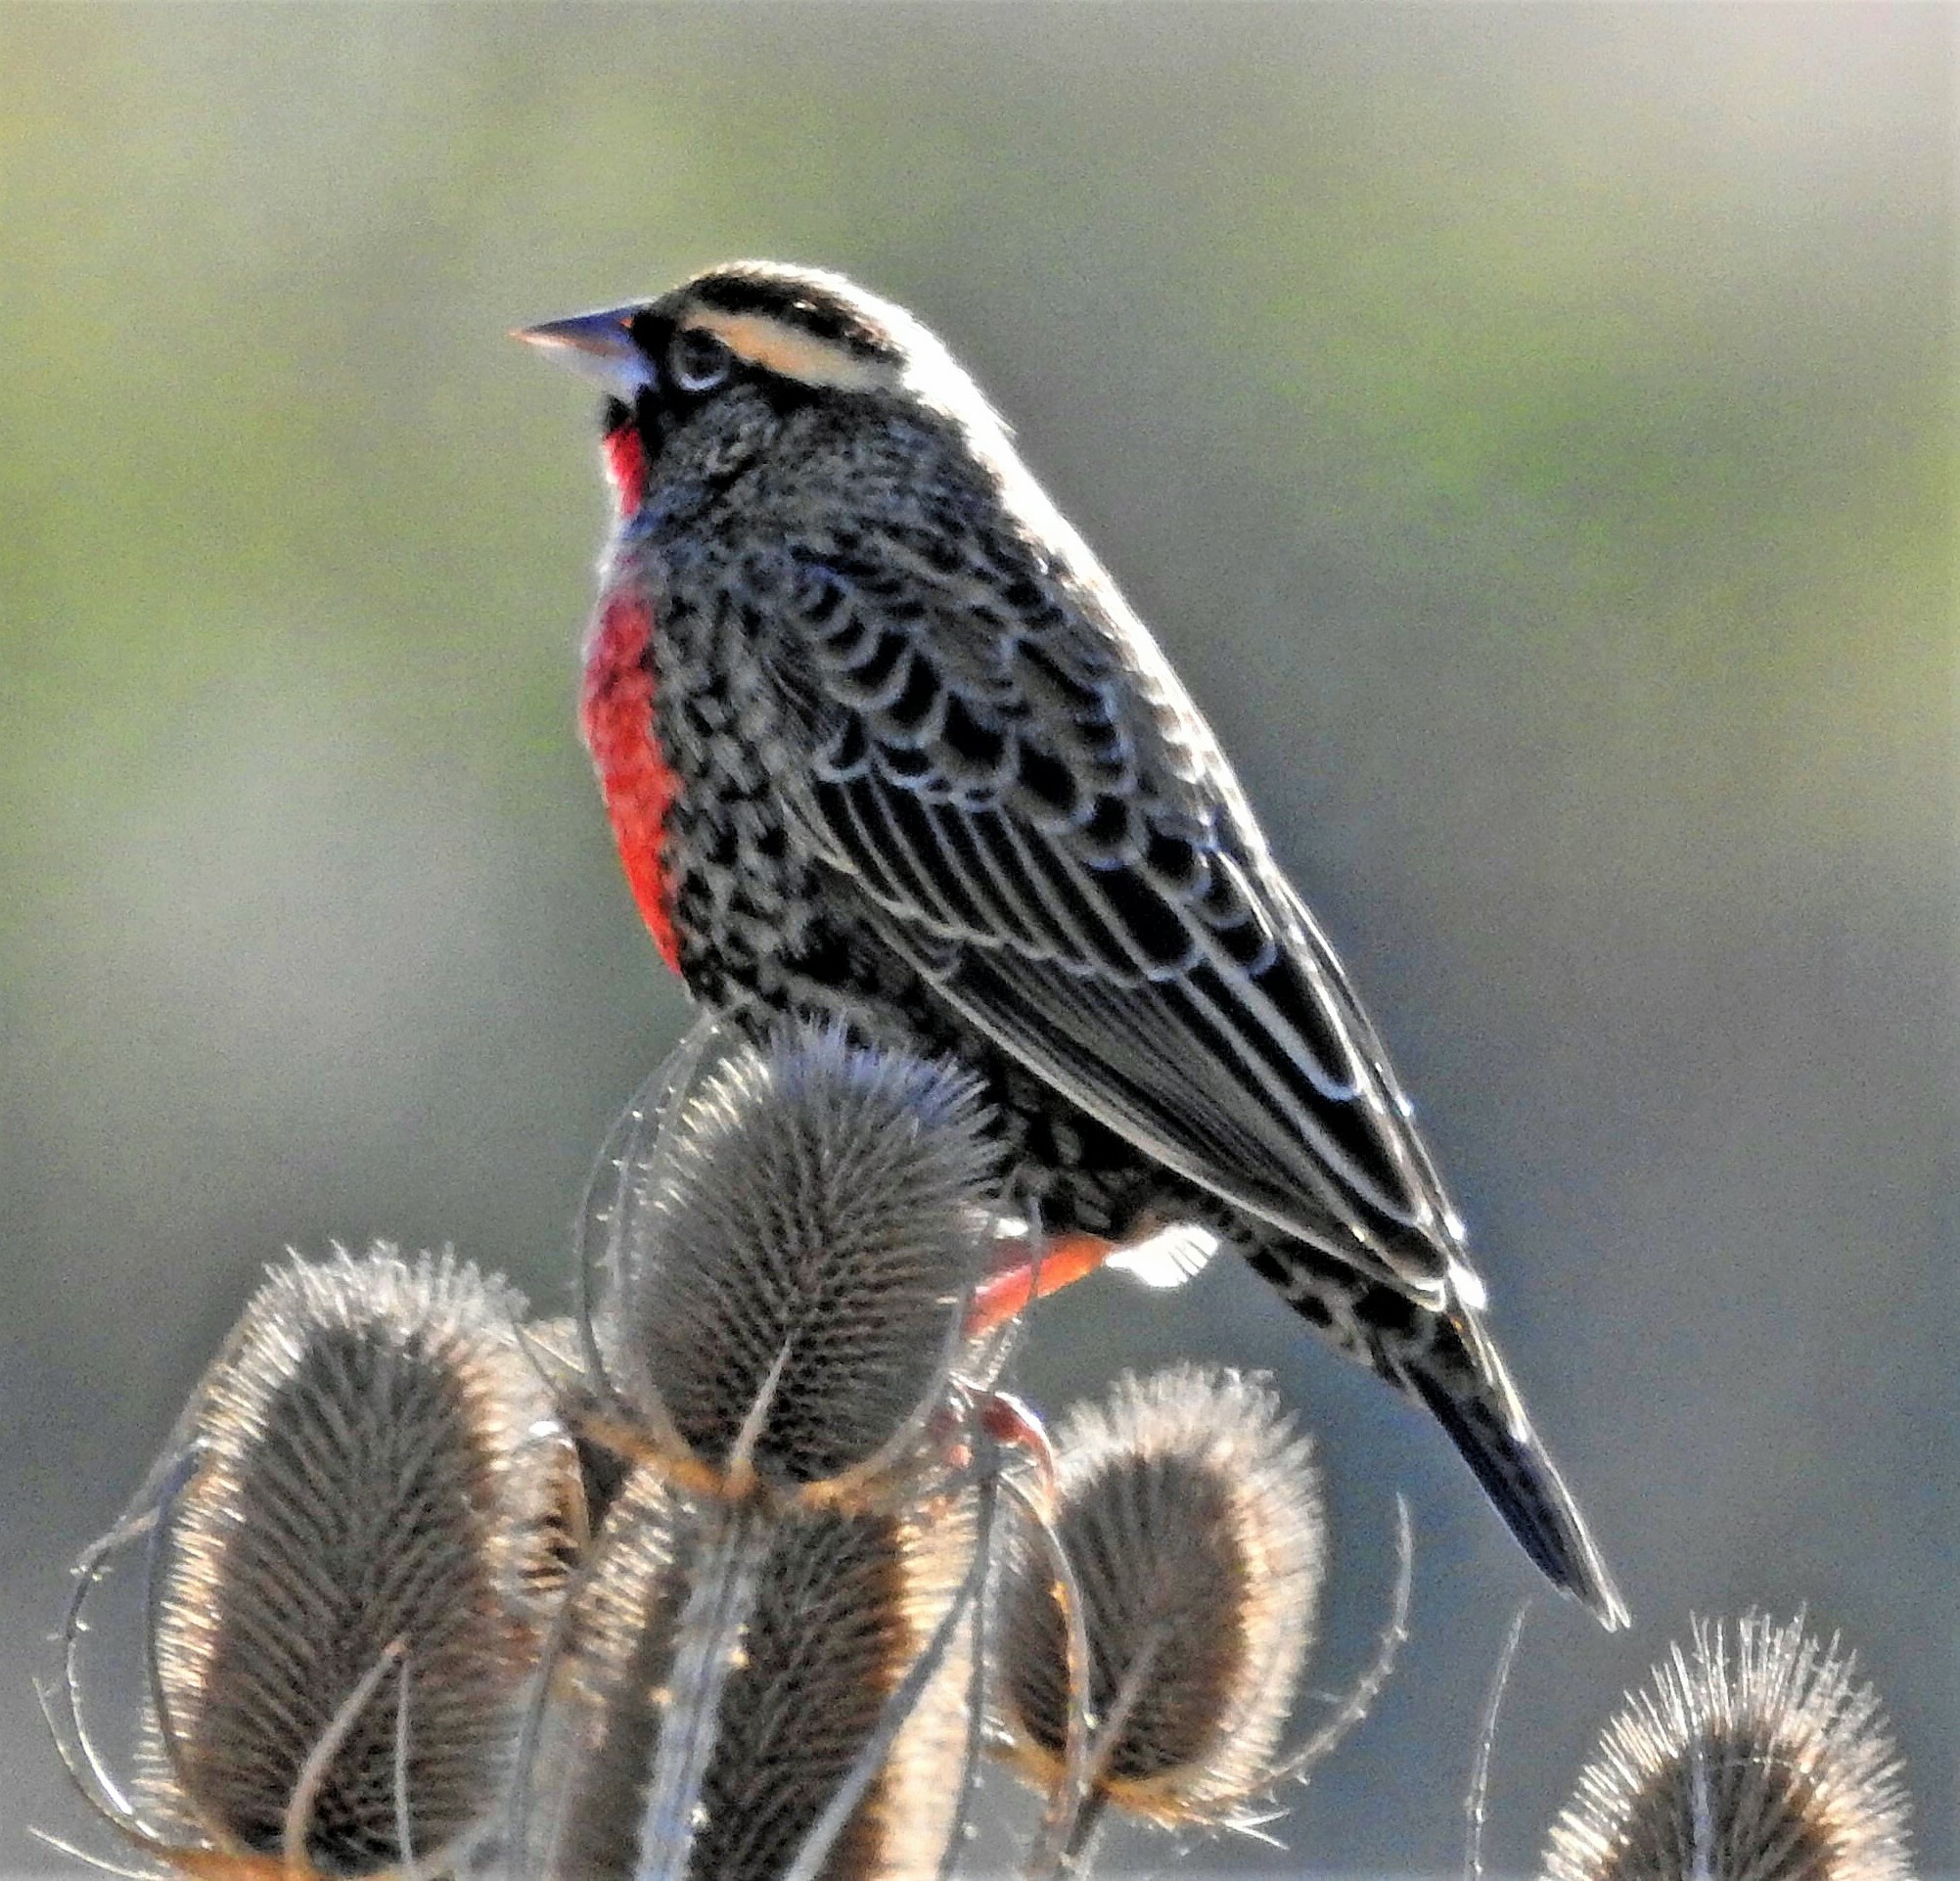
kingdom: Animalia
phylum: Chordata
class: Aves
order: Passeriformes
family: Icteridae
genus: Sturnella
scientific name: Sturnella superciliaris
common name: White-browed blackbird
